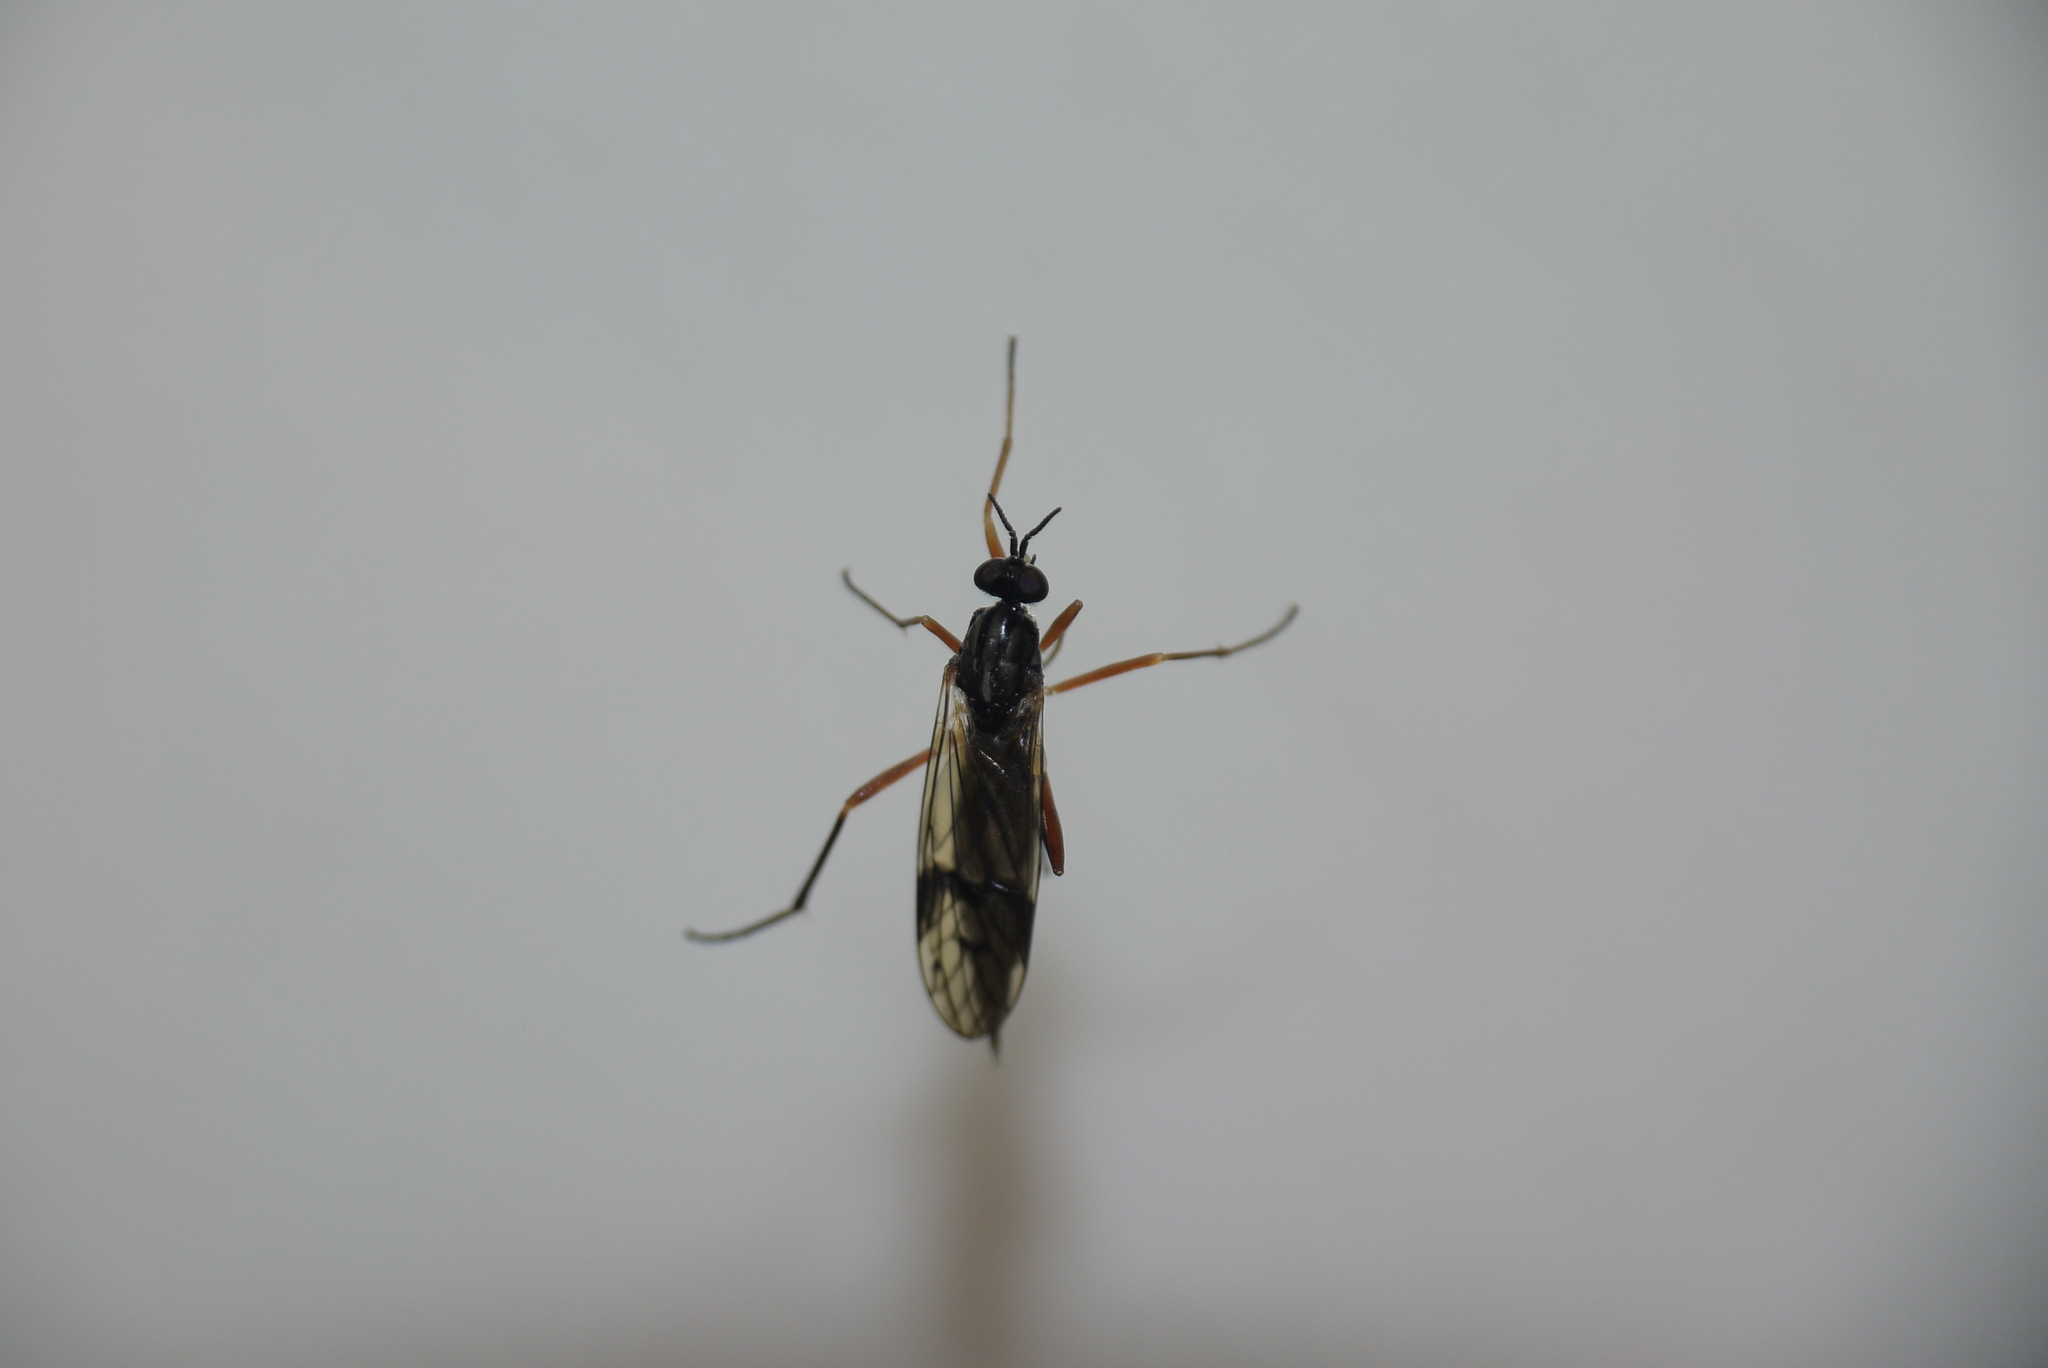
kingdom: Animalia
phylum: Arthropoda
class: Insecta
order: Diptera
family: Xylophagidae
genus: Xylophagus
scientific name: Xylophagus ater
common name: Common awl-fly
